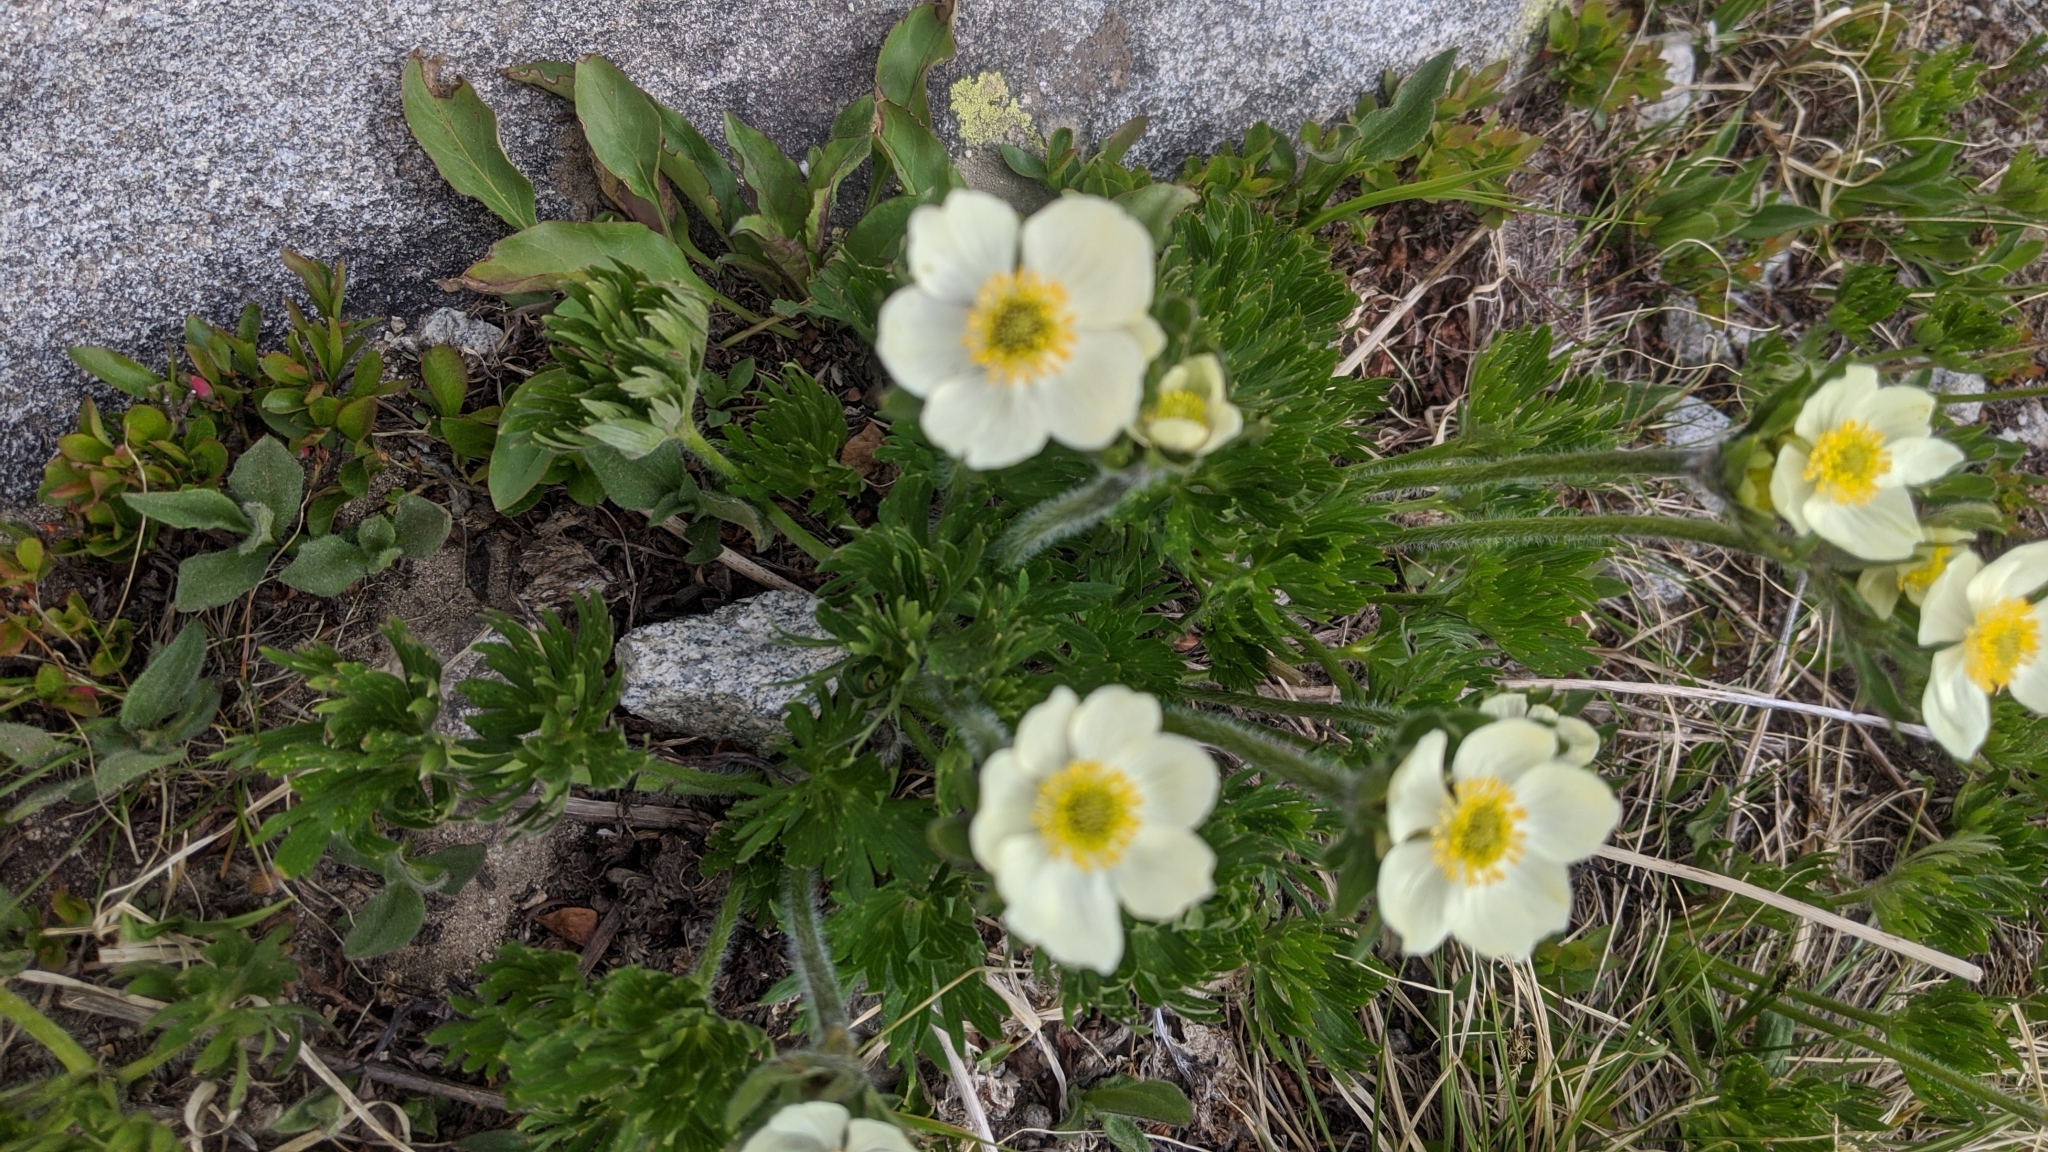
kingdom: Plantae
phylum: Tracheophyta
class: Magnoliopsida
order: Ranunculales
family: Ranunculaceae
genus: Trollius
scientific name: Trollius laxus
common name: American globeflower
